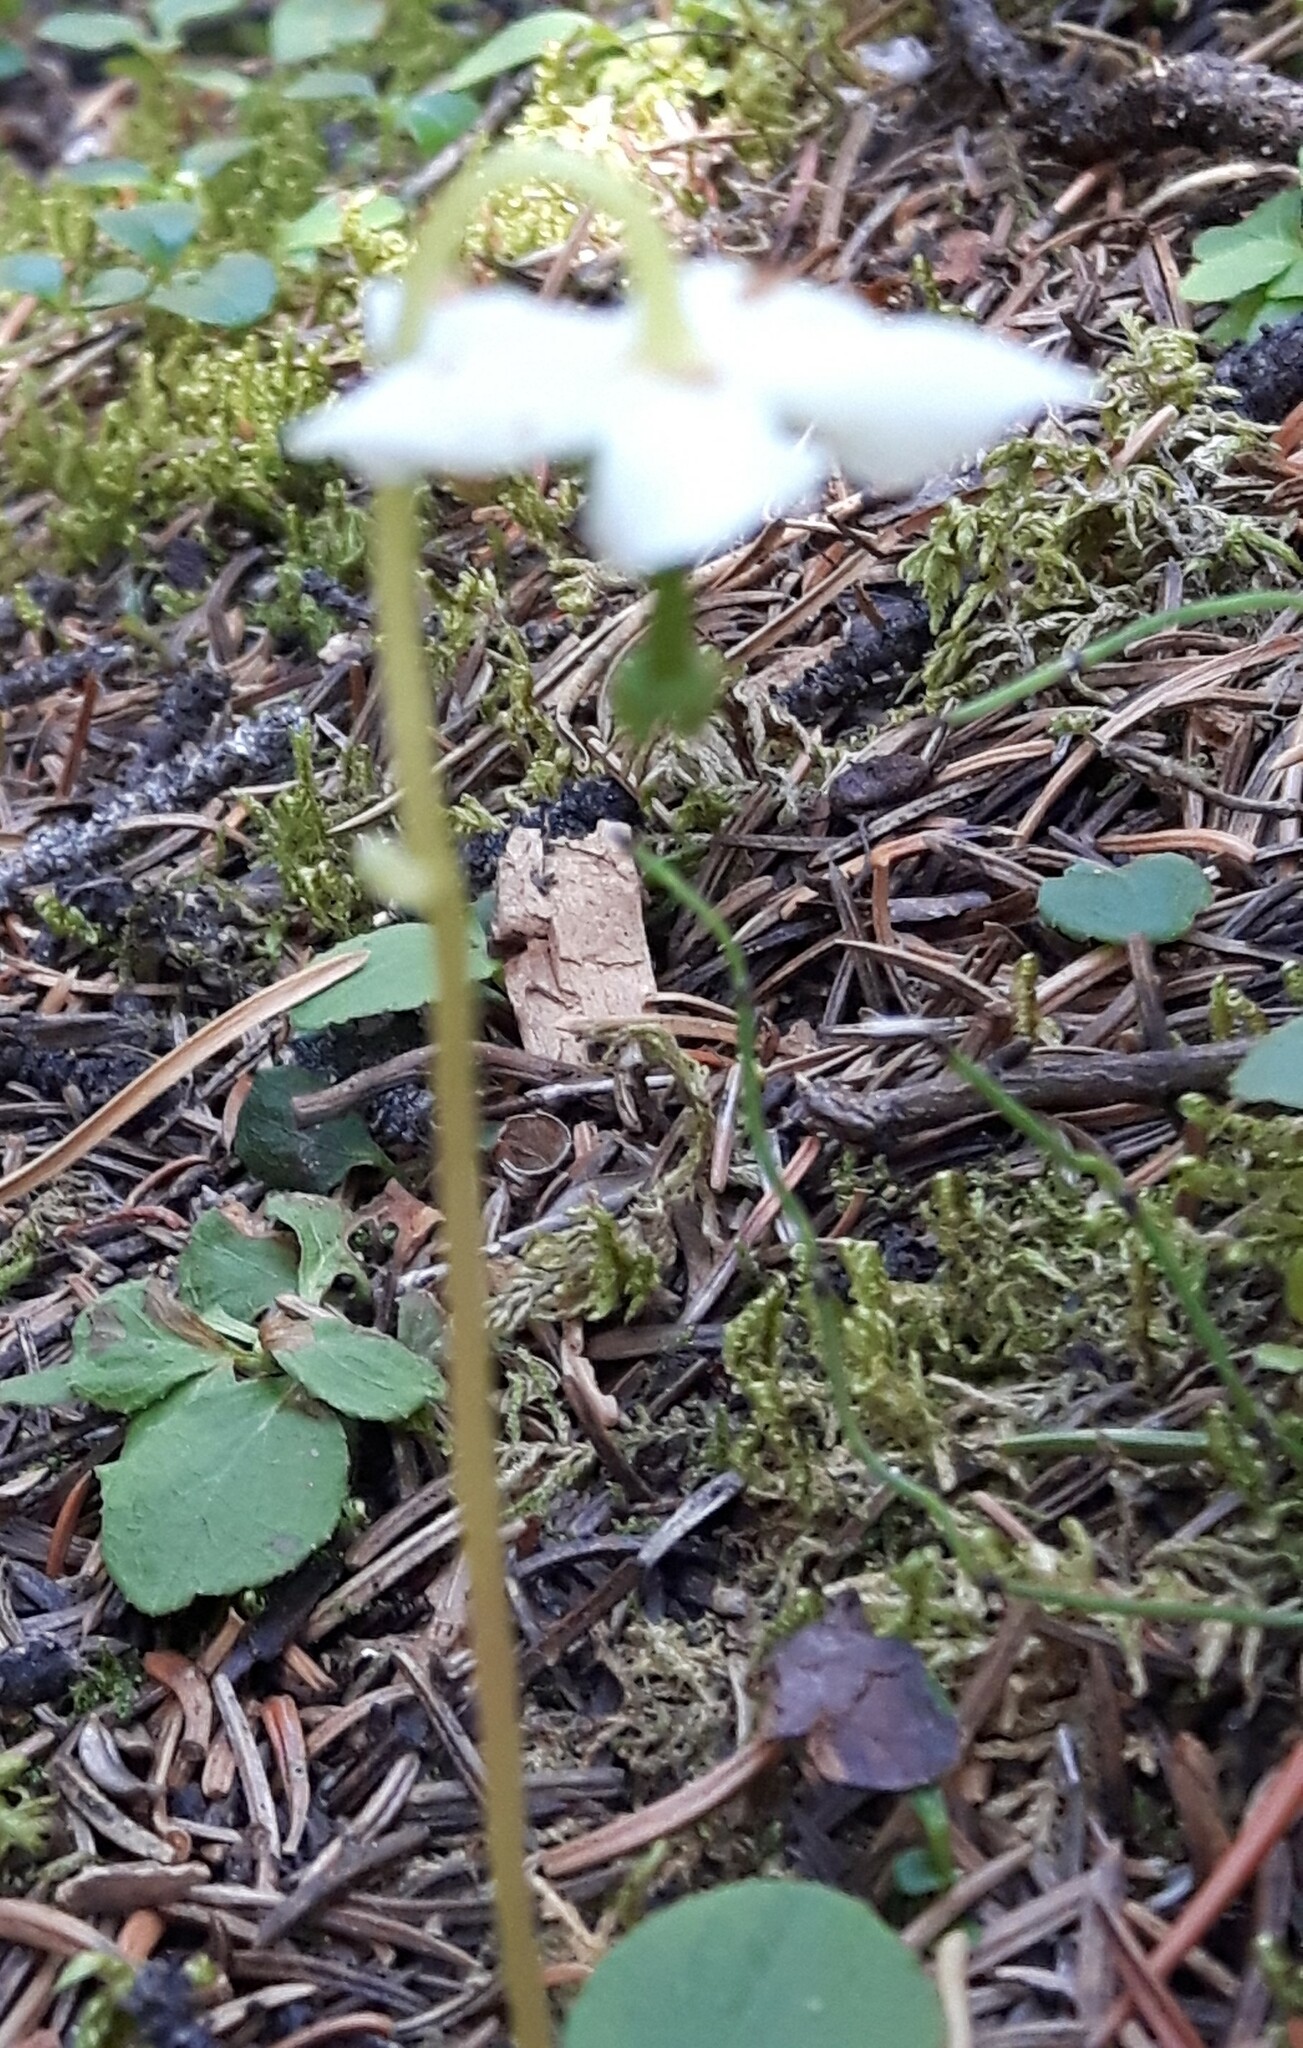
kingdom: Plantae
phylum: Tracheophyta
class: Magnoliopsida
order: Ericales
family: Ericaceae
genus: Moneses
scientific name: Moneses uniflora
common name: One-flowered wintergreen
